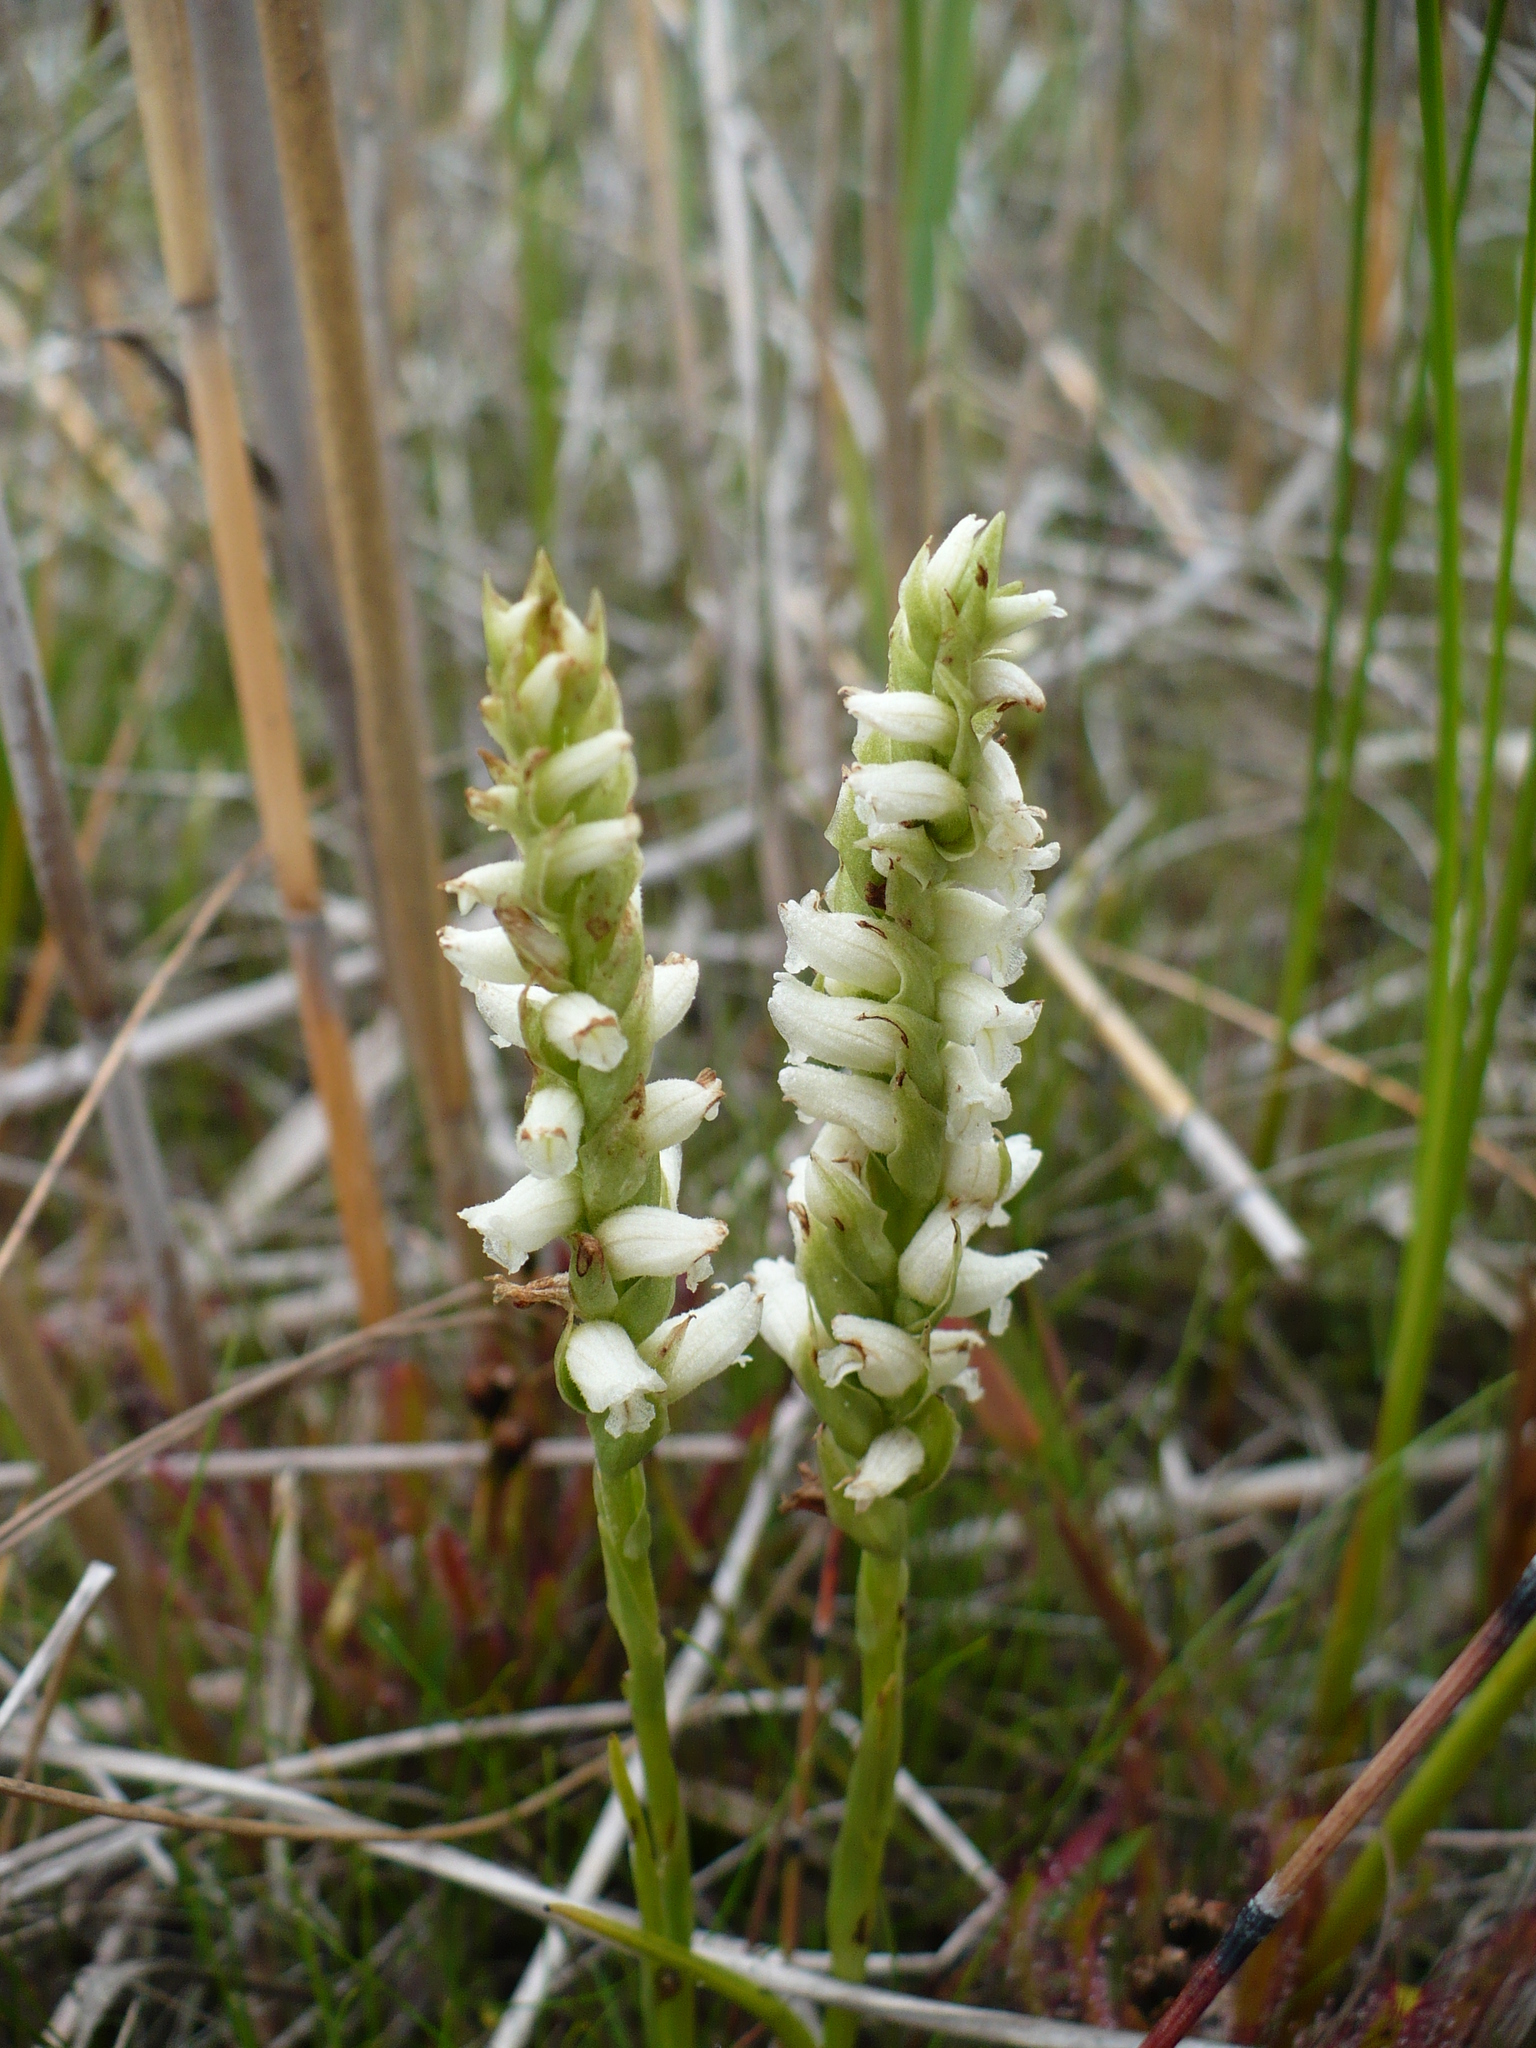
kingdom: Plantae
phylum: Tracheophyta
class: Liliopsida
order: Asparagales
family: Orchidaceae
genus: Spiranthes
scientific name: Spiranthes romanzoffiana
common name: Irish lady's-tresses
